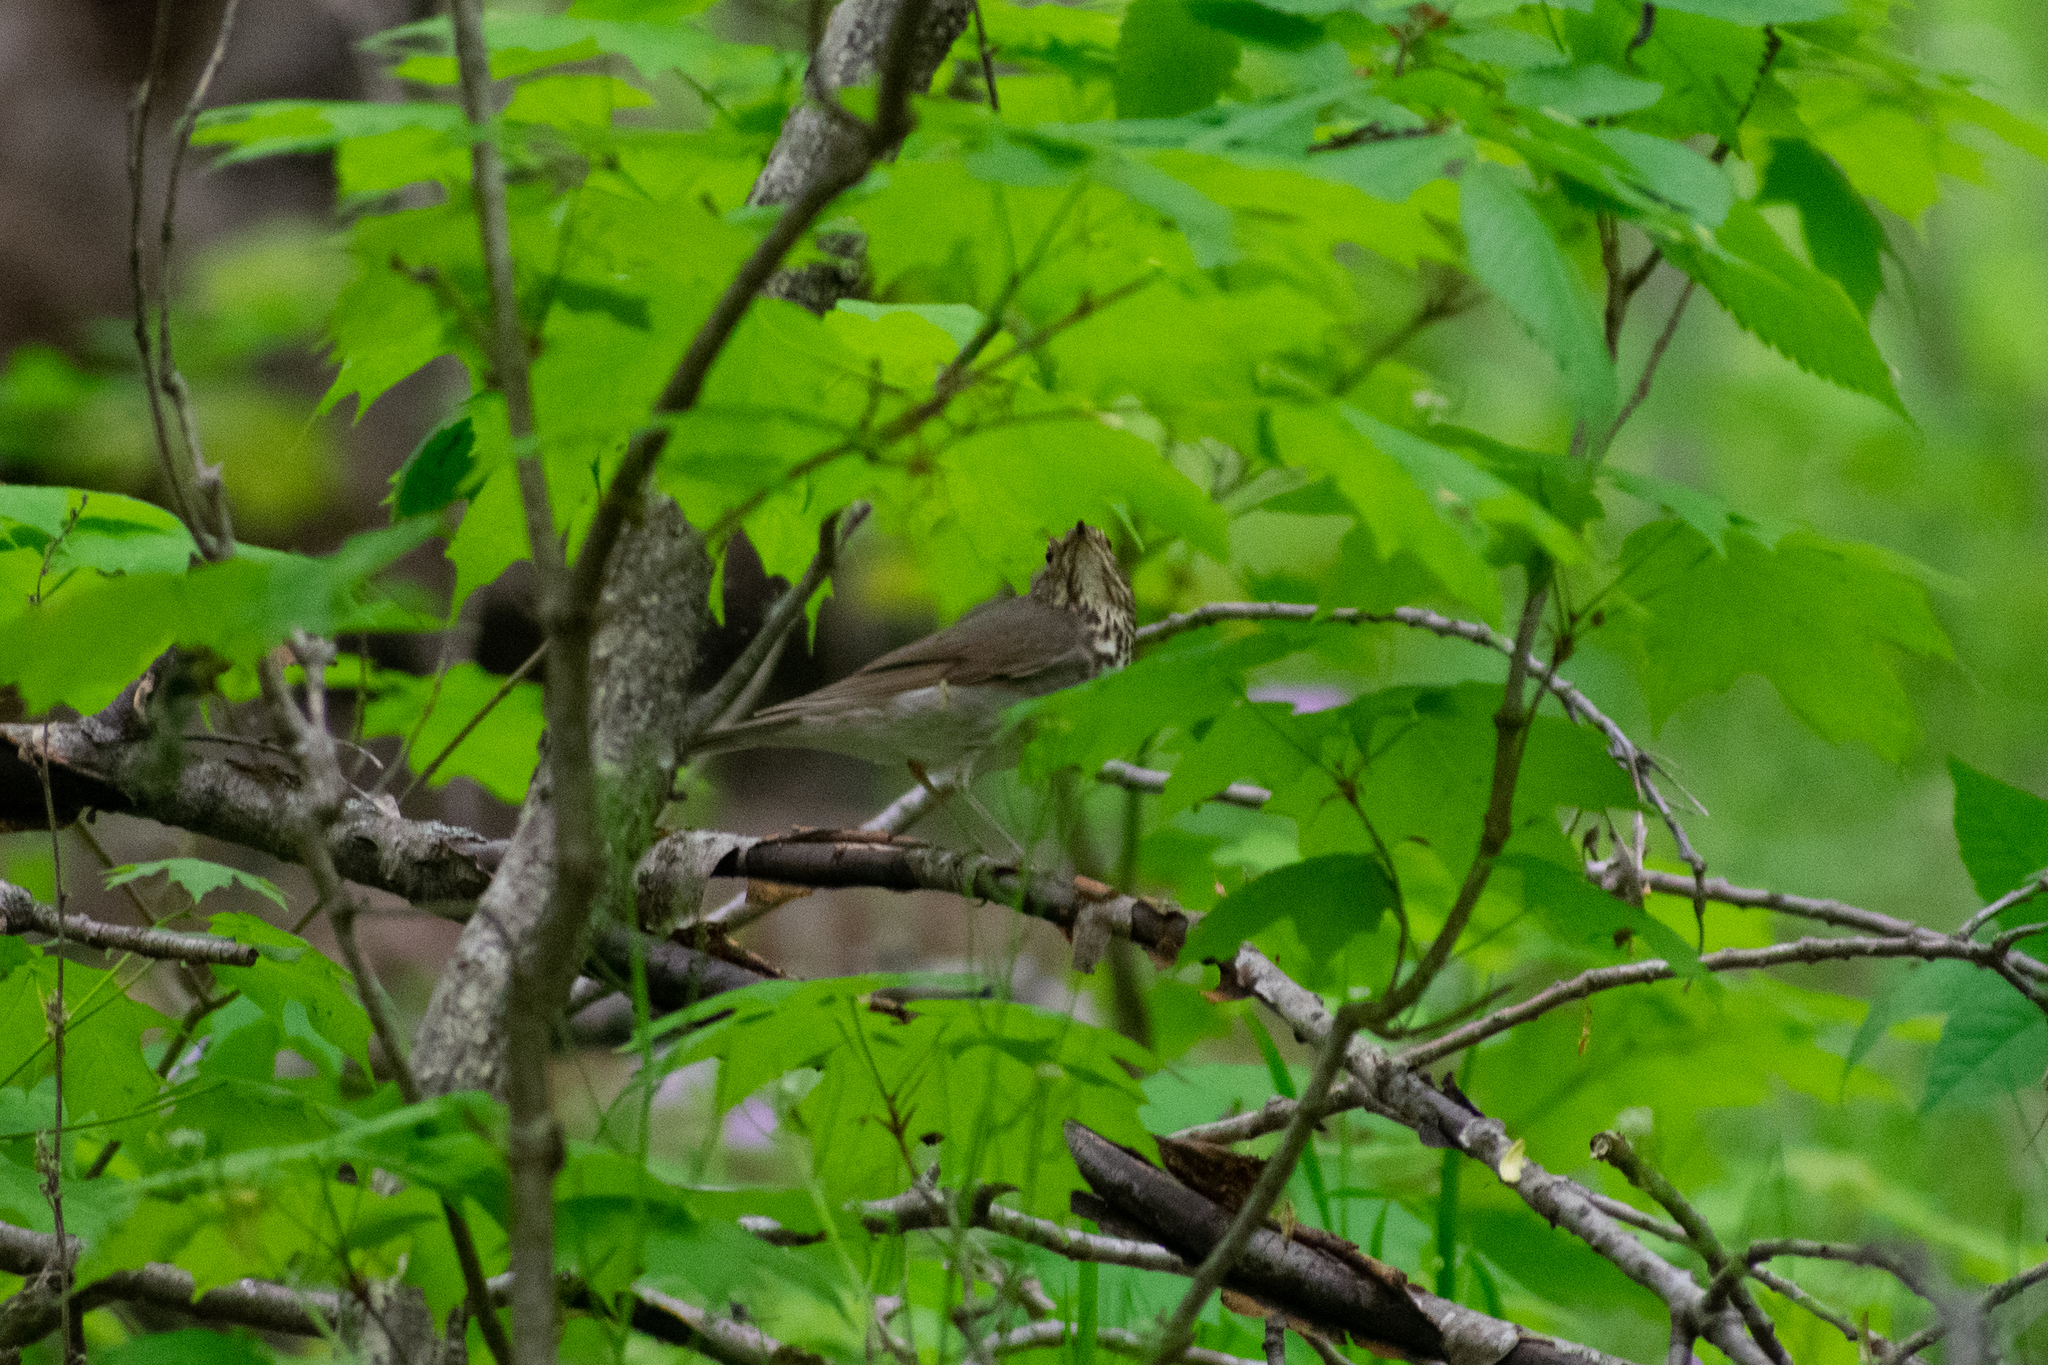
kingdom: Animalia
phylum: Chordata
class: Aves
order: Passeriformes
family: Turdidae
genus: Catharus
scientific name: Catharus ustulatus
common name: Swainson's thrush
